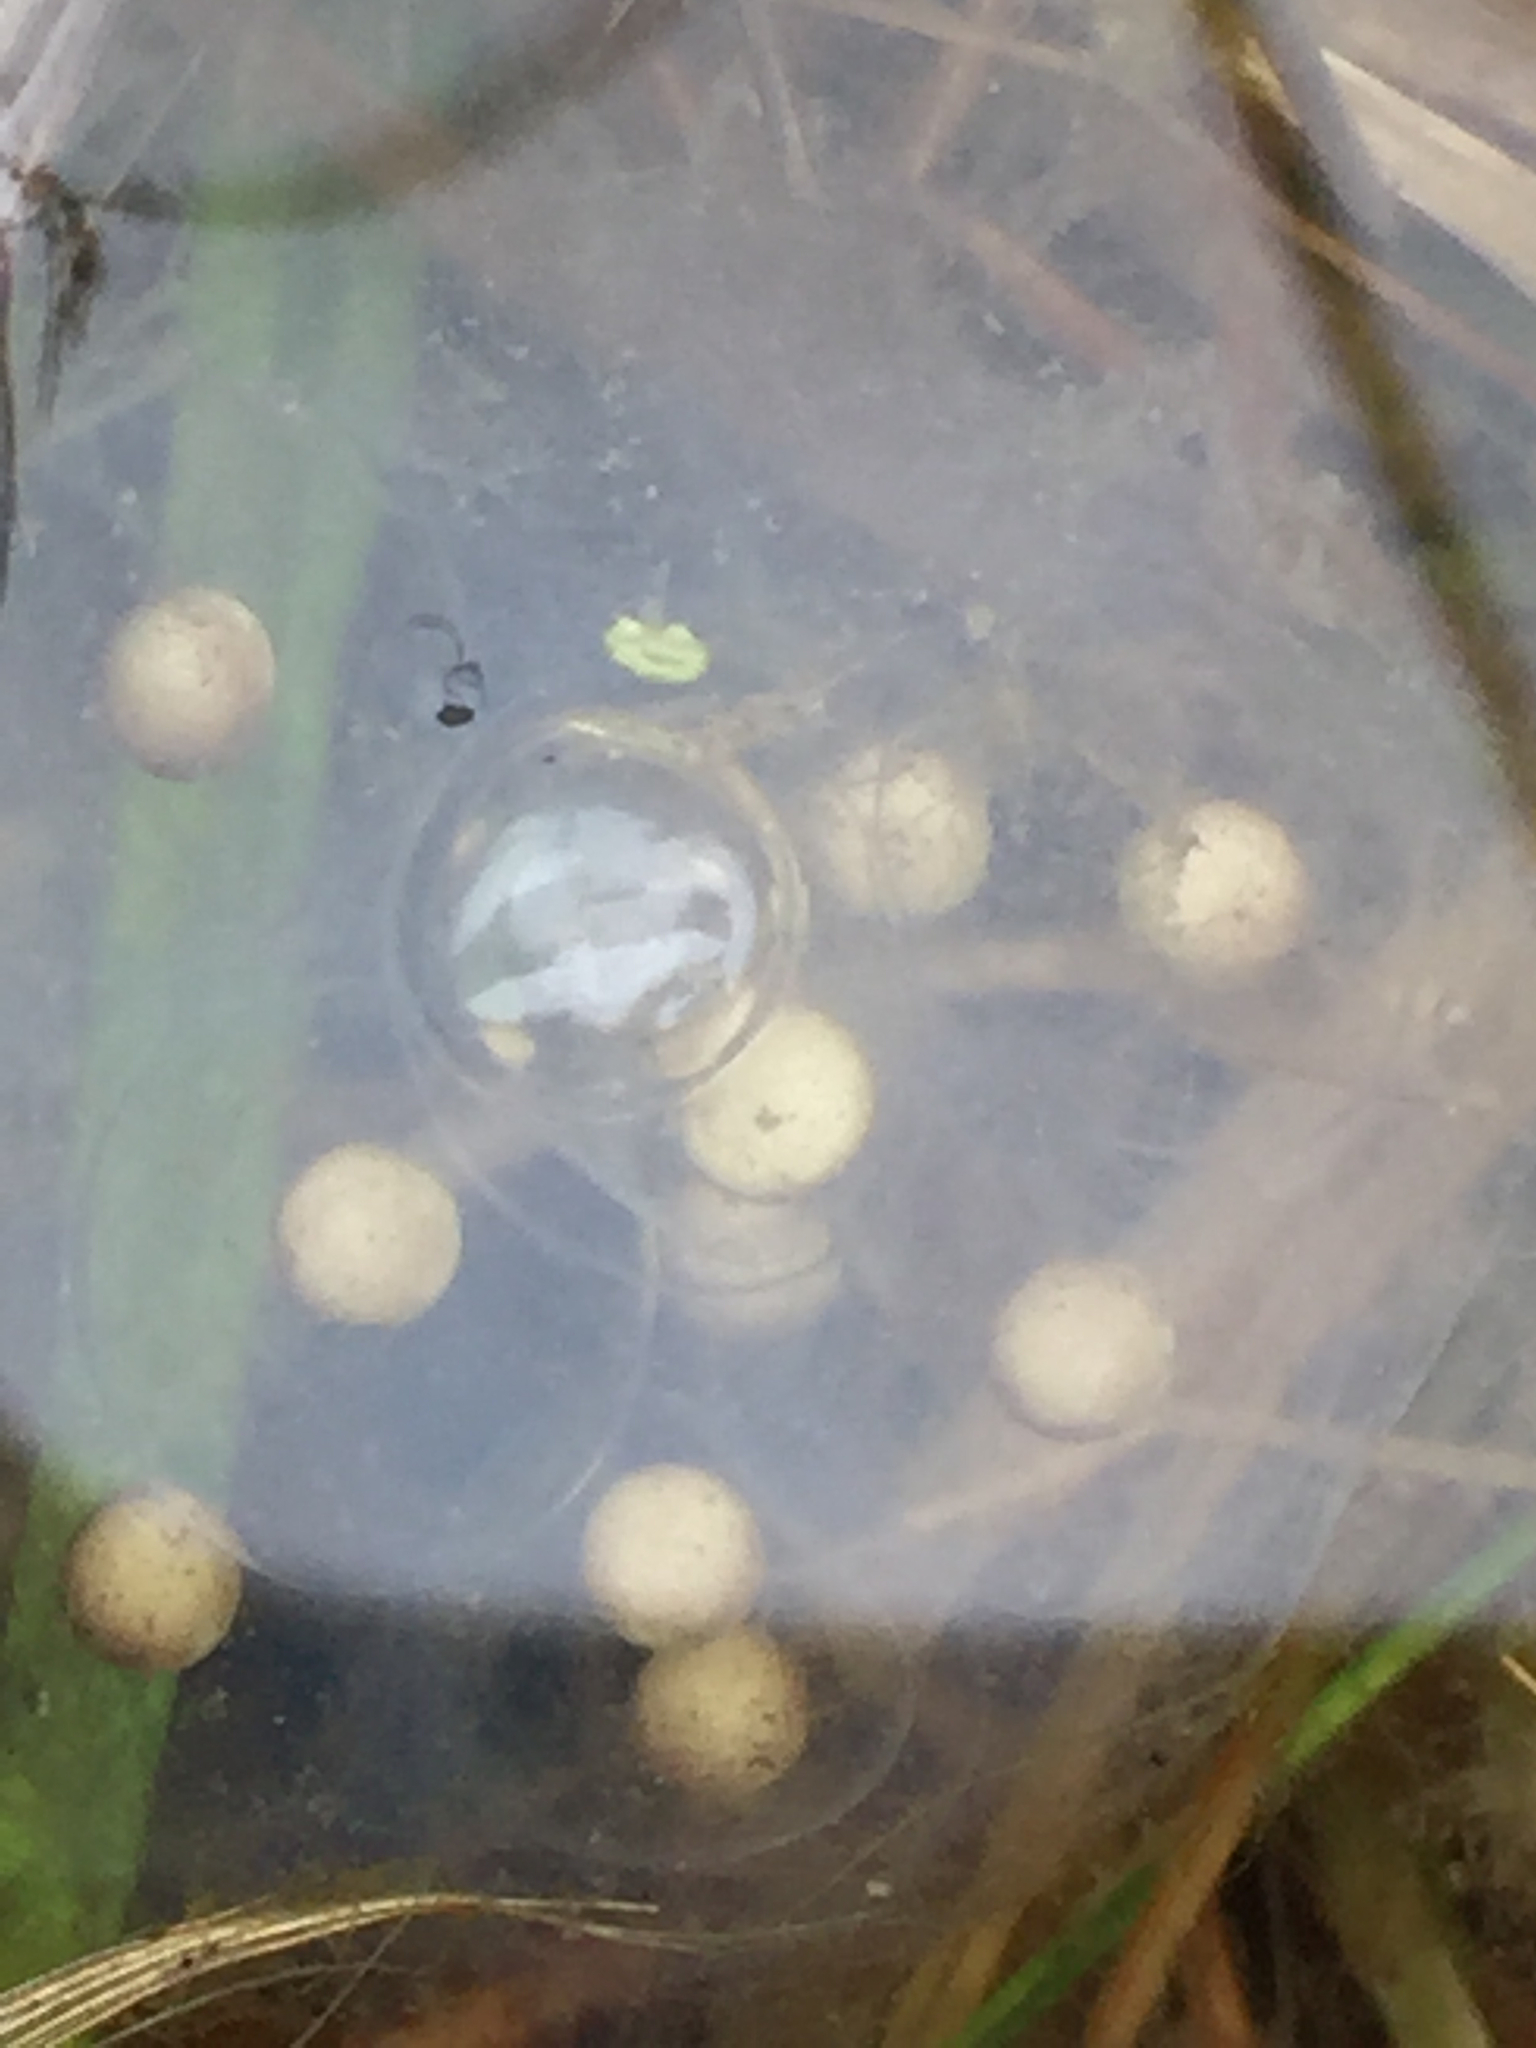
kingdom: Animalia
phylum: Chordata
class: Amphibia
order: Caudata
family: Salamandridae
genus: Taricha
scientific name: Taricha torosa
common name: California newt
